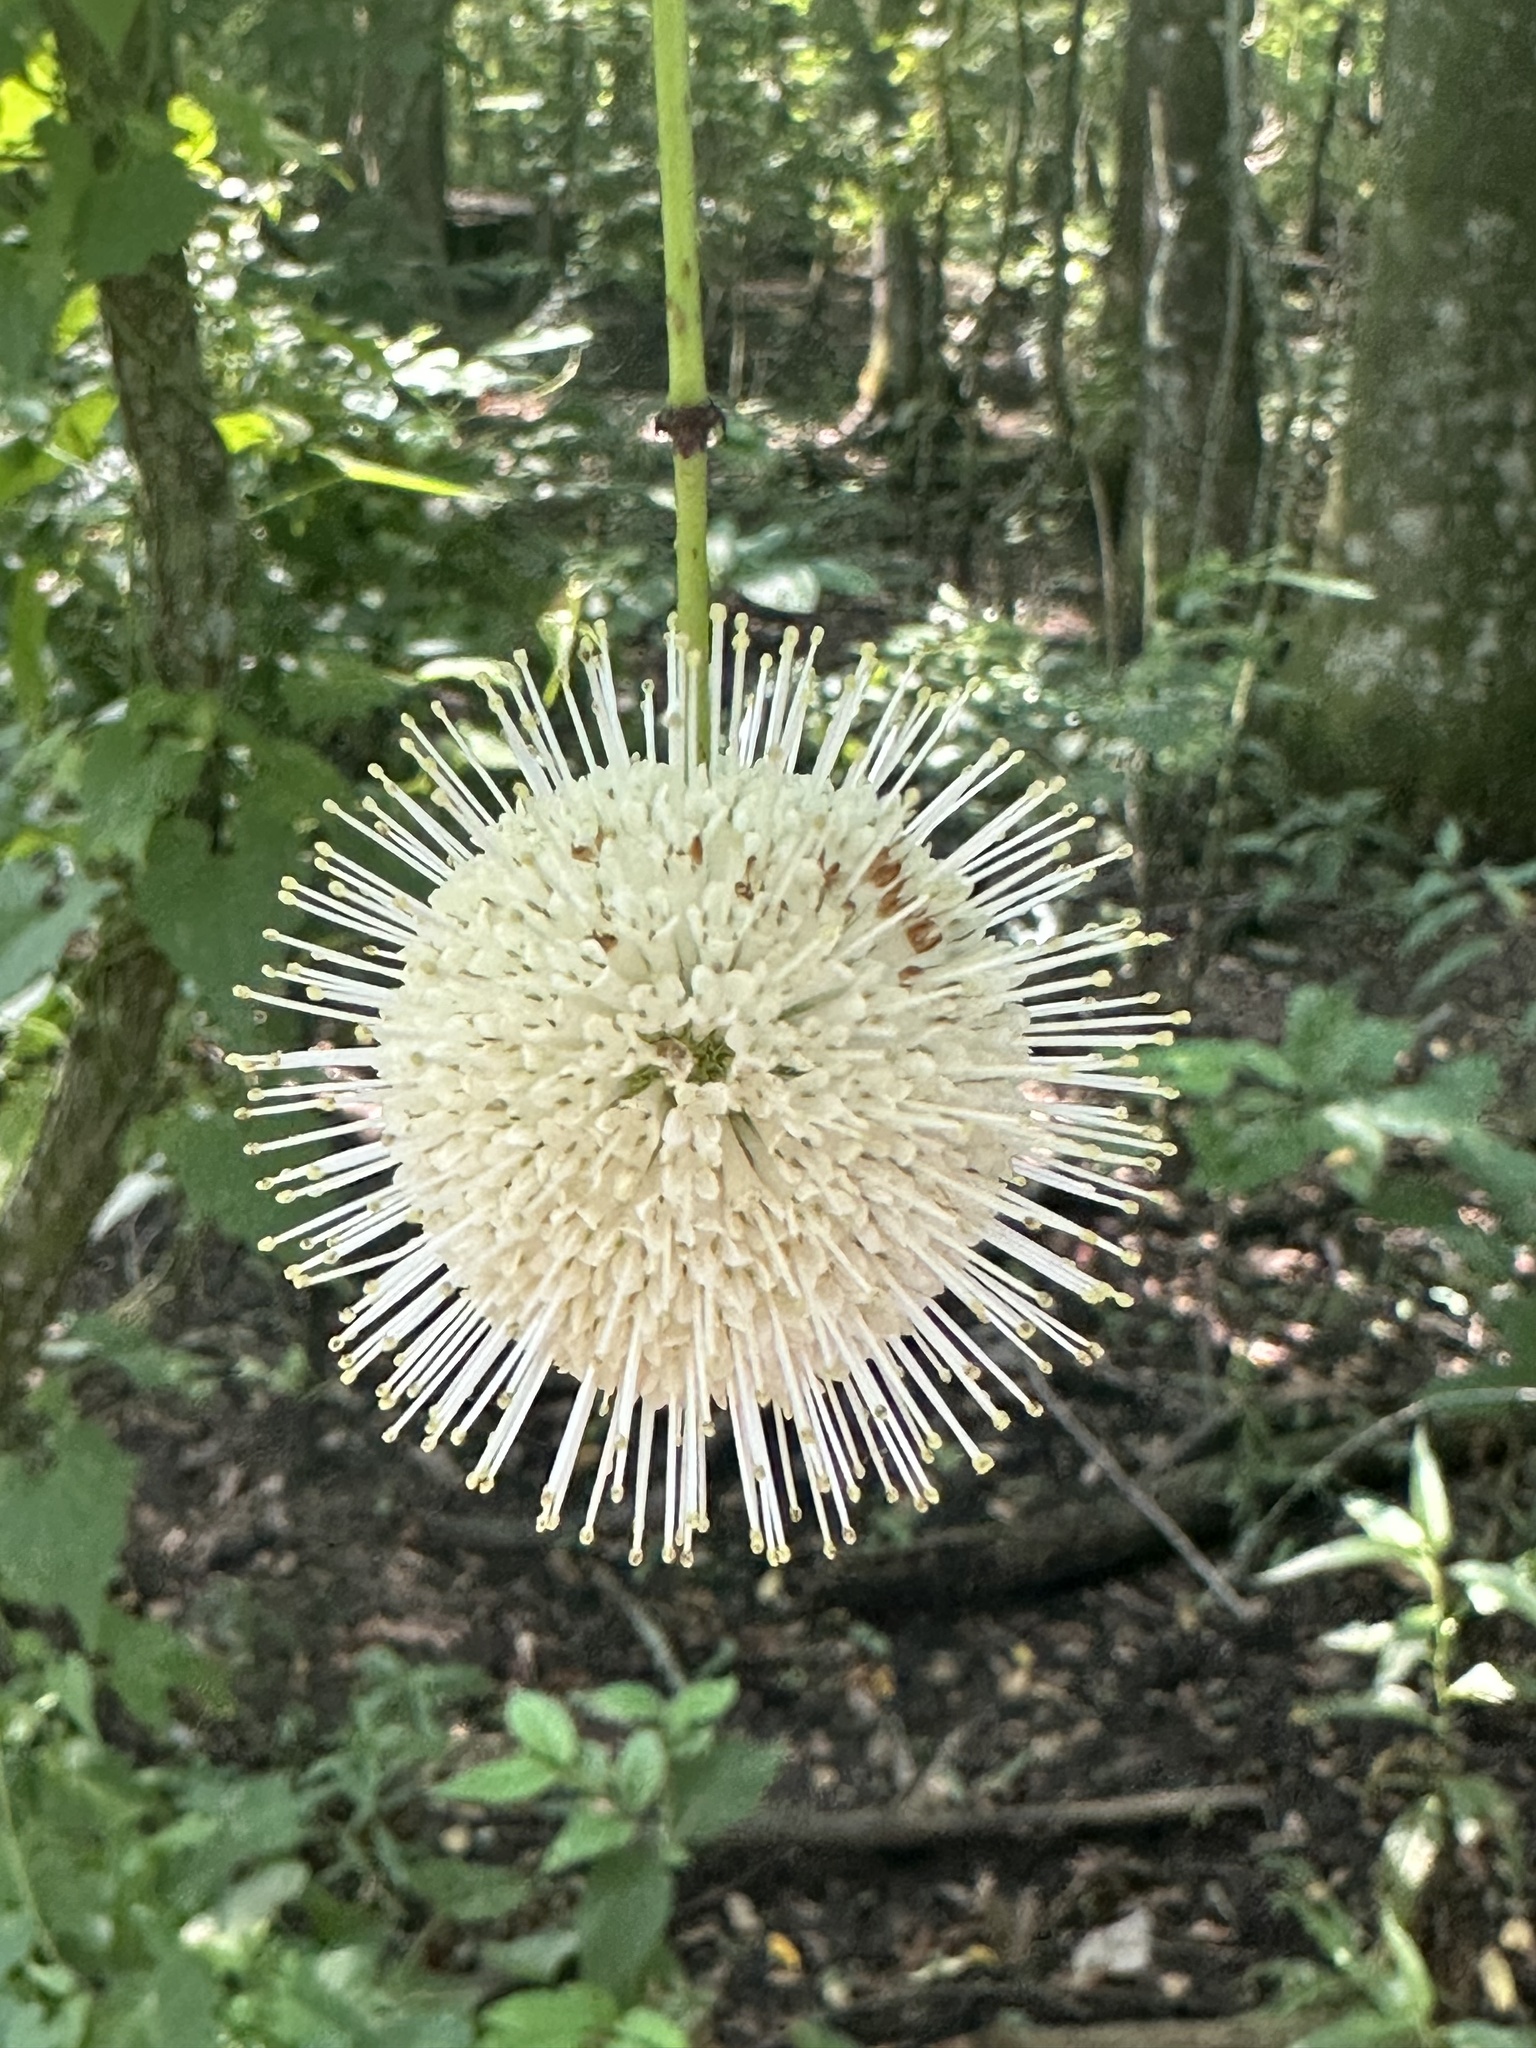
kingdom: Plantae
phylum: Tracheophyta
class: Magnoliopsida
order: Gentianales
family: Rubiaceae
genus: Cephalanthus
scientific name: Cephalanthus occidentalis
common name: Button-willow
